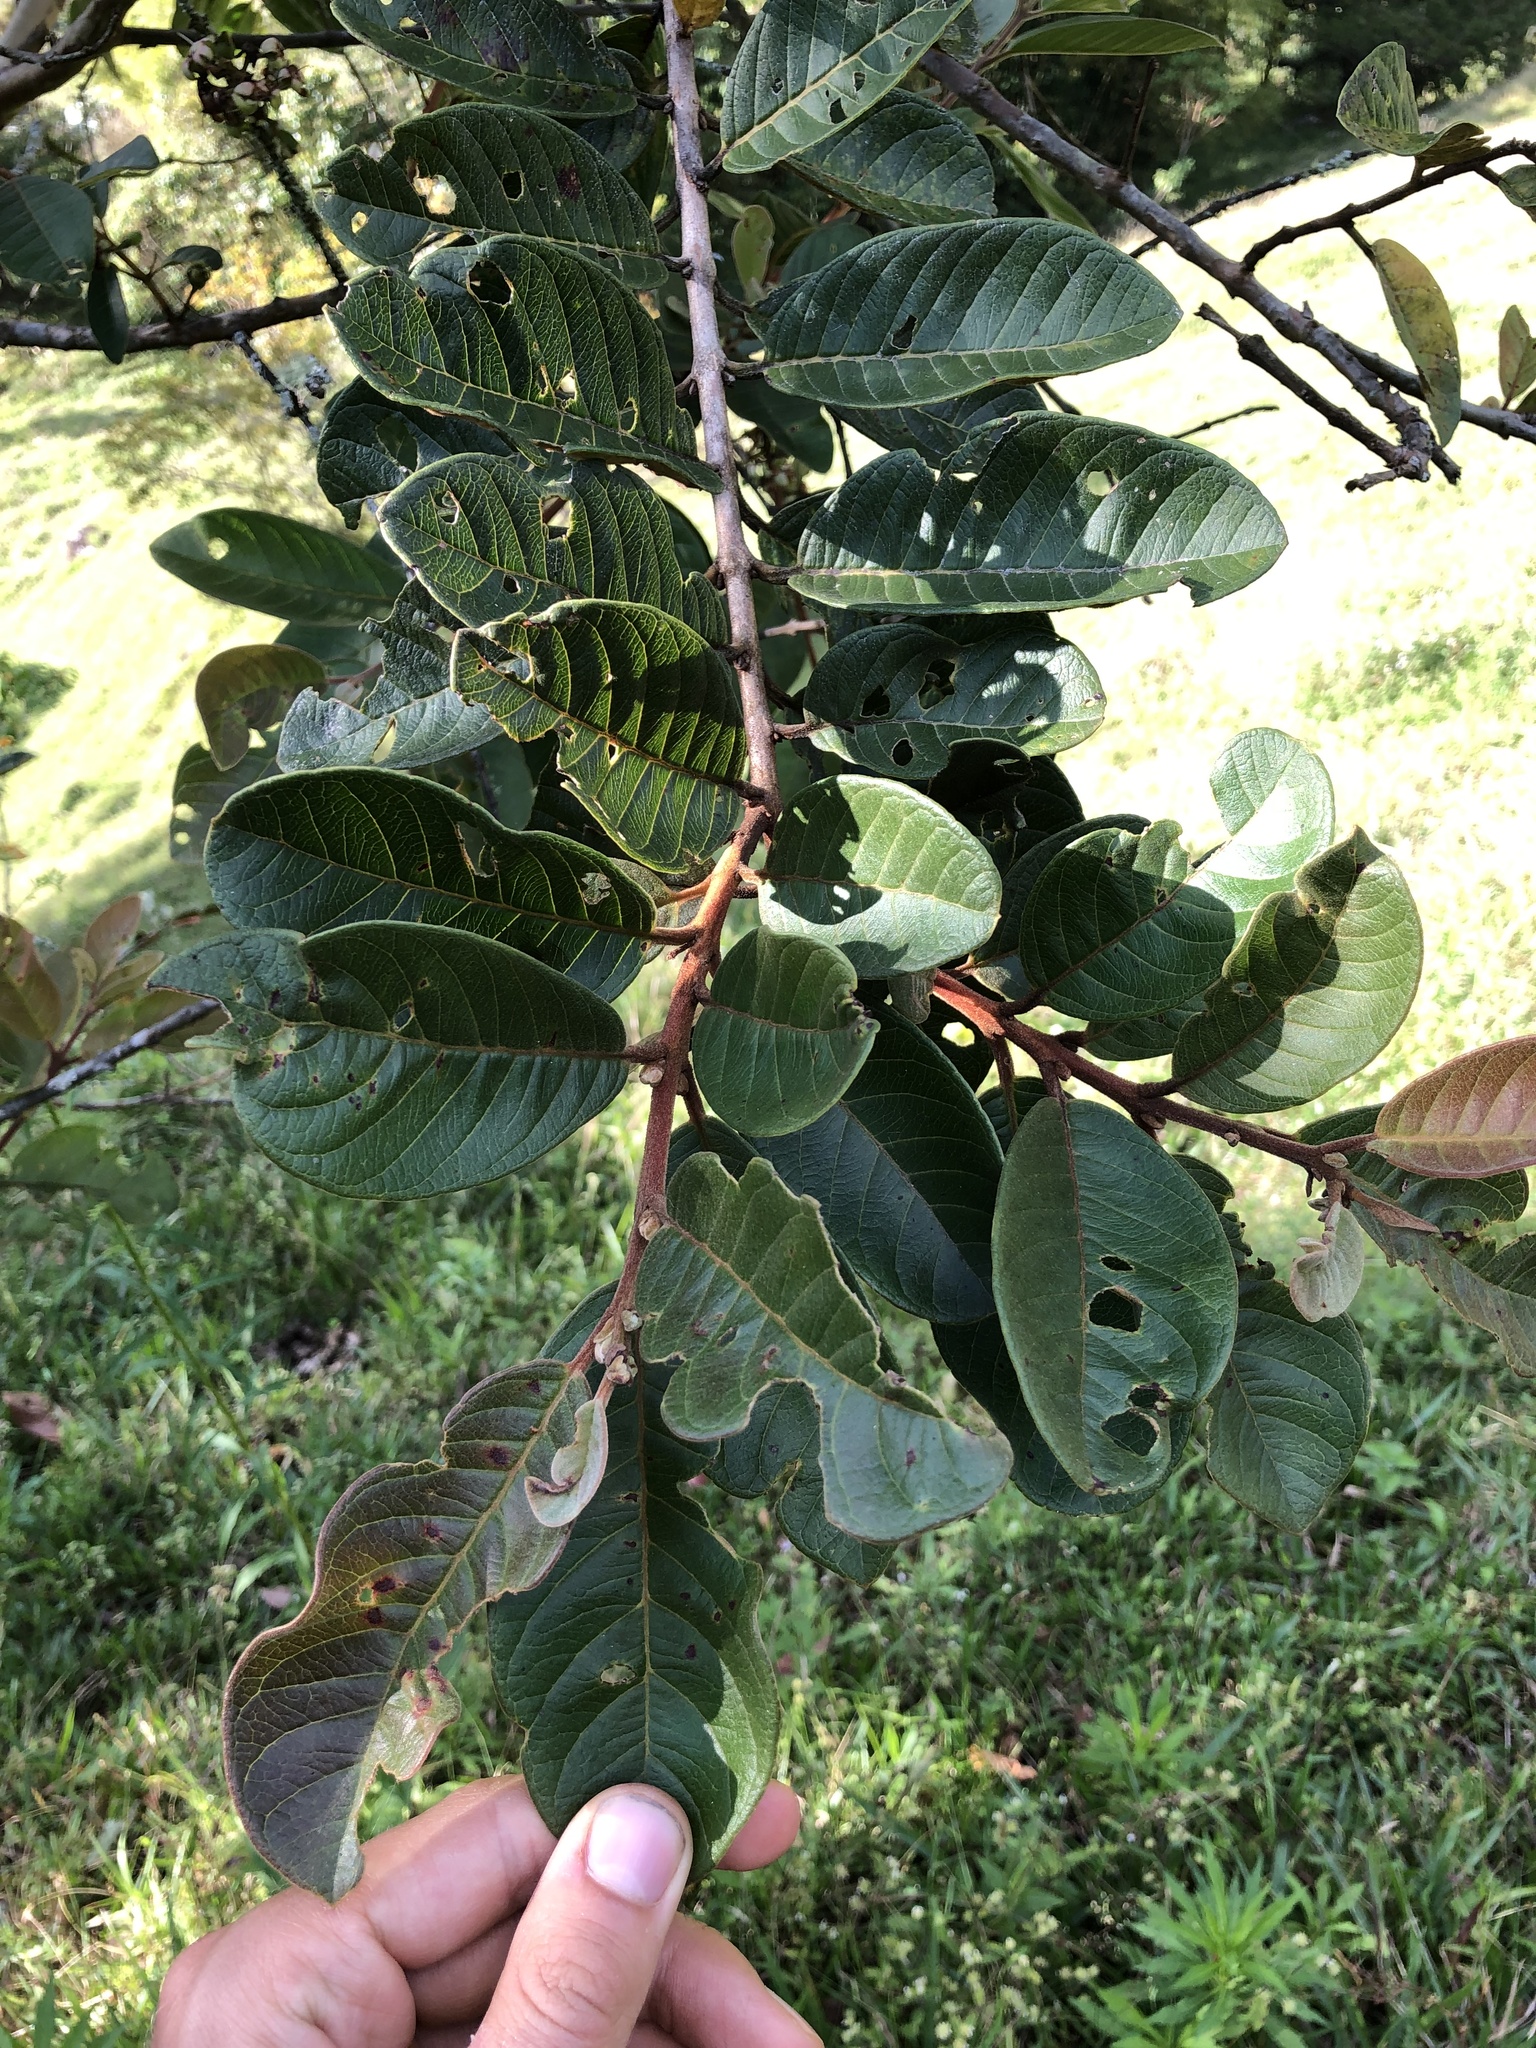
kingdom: Plantae
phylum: Tracheophyta
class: Magnoliopsida
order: Myrtales
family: Myrtaceae
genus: Psidium
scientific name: Psidium guajava
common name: Guava
